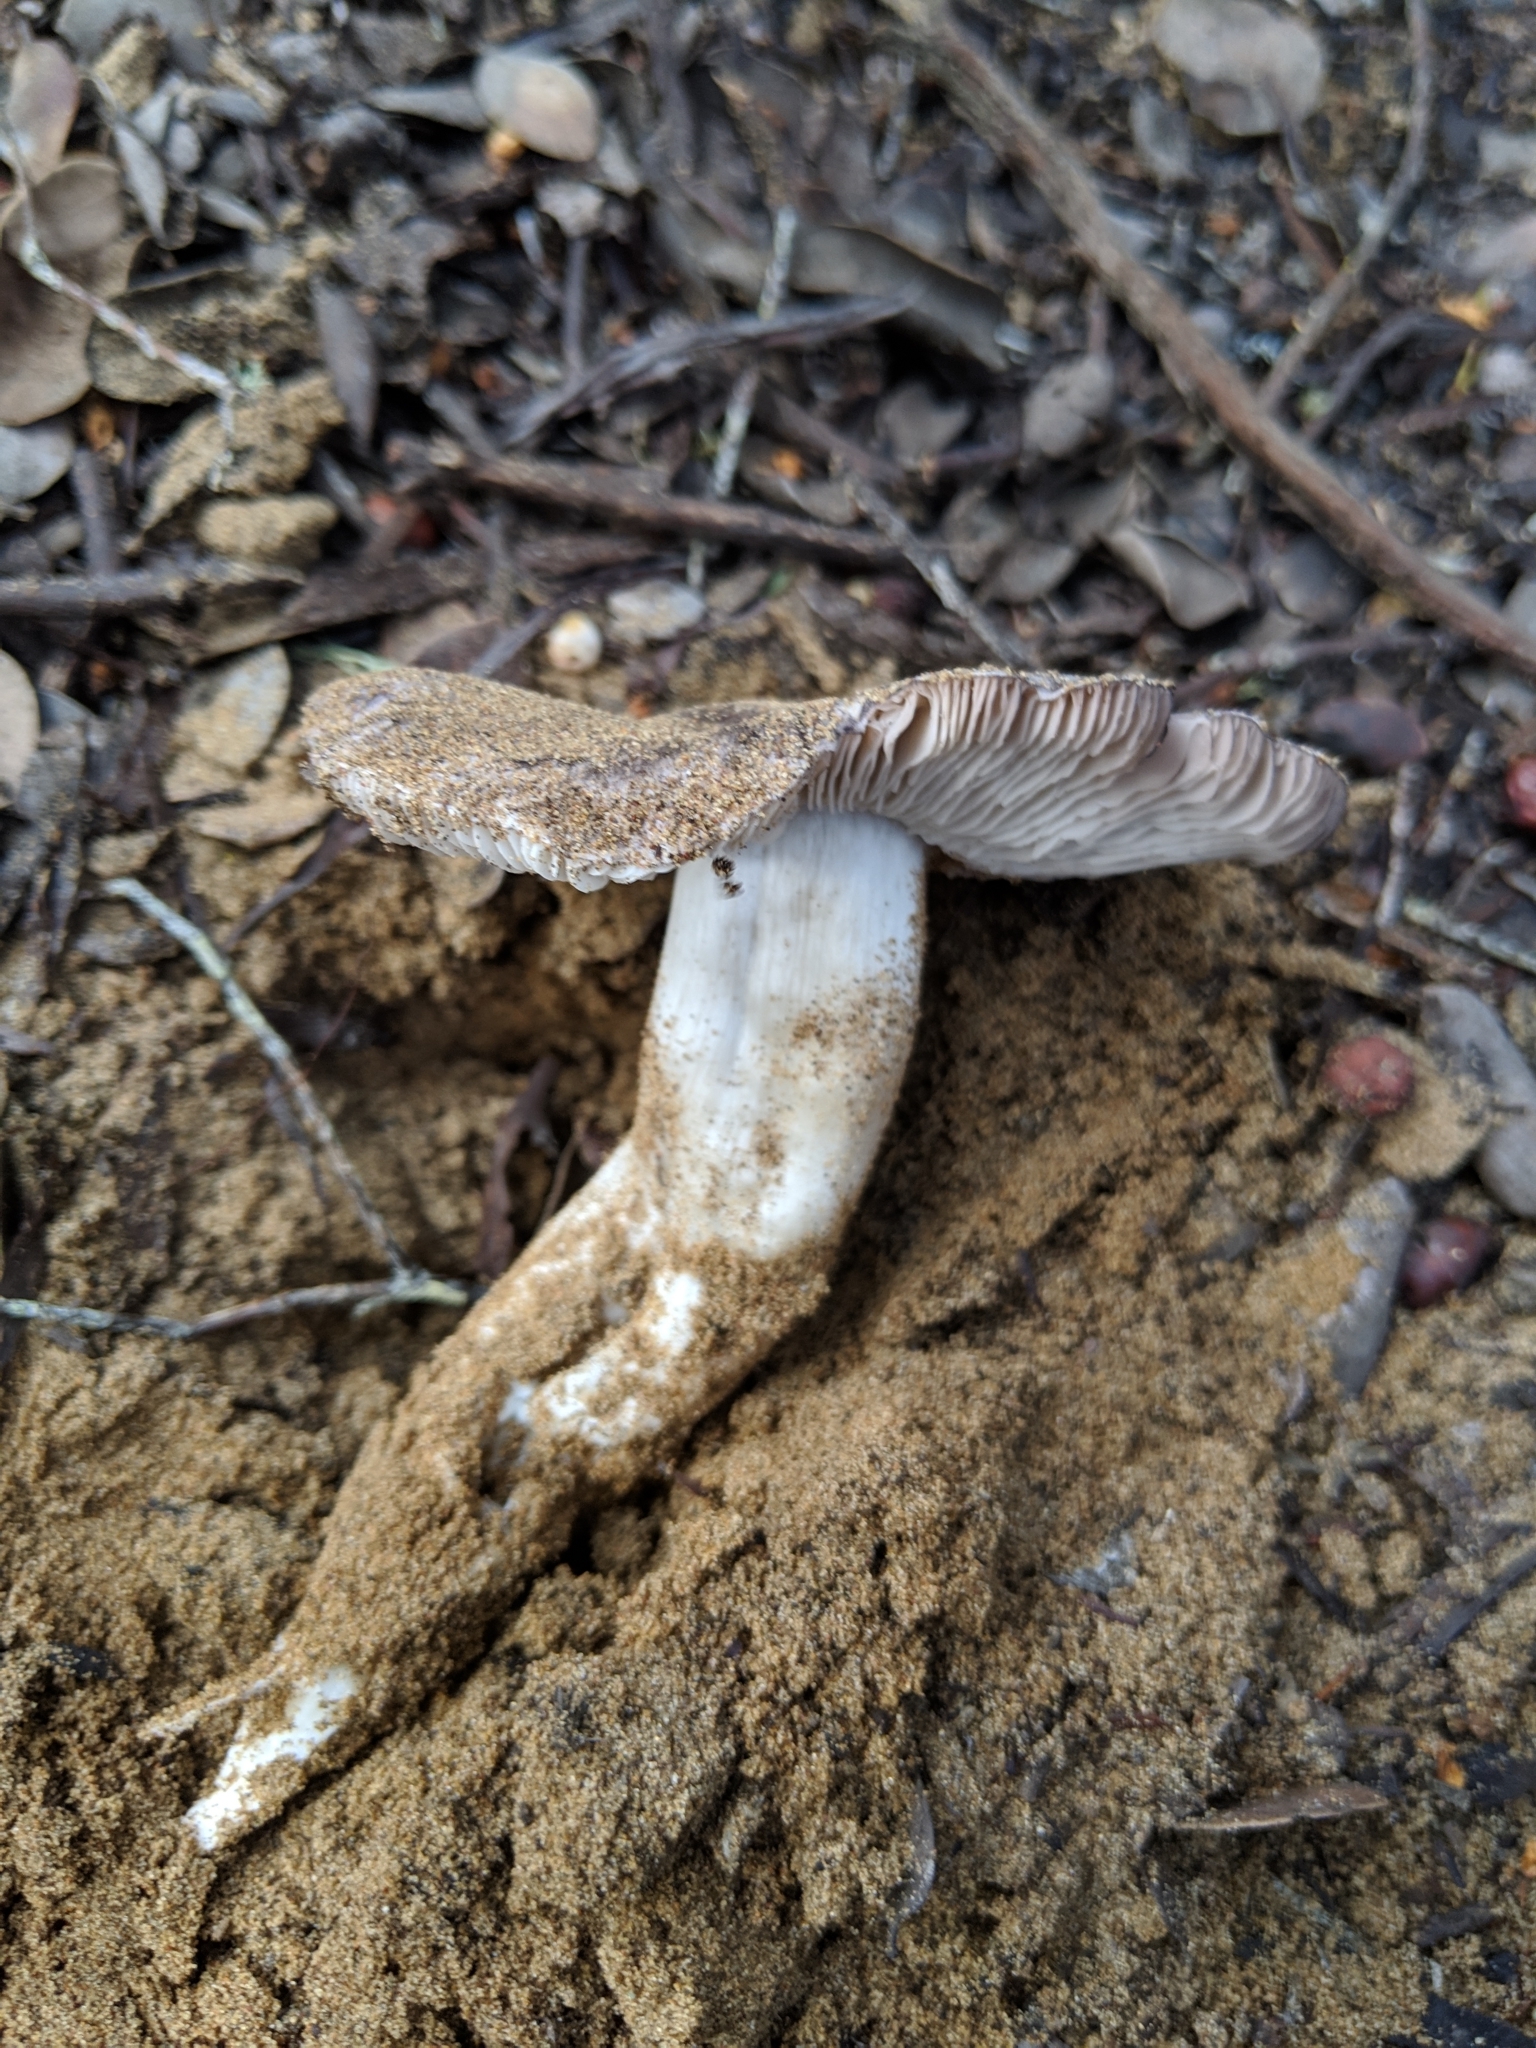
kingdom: Fungi
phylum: Basidiomycota
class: Agaricomycetes
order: Agaricales
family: Tricholomataceae
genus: Tricholoma
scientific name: Tricholoma griseoviolaceum
